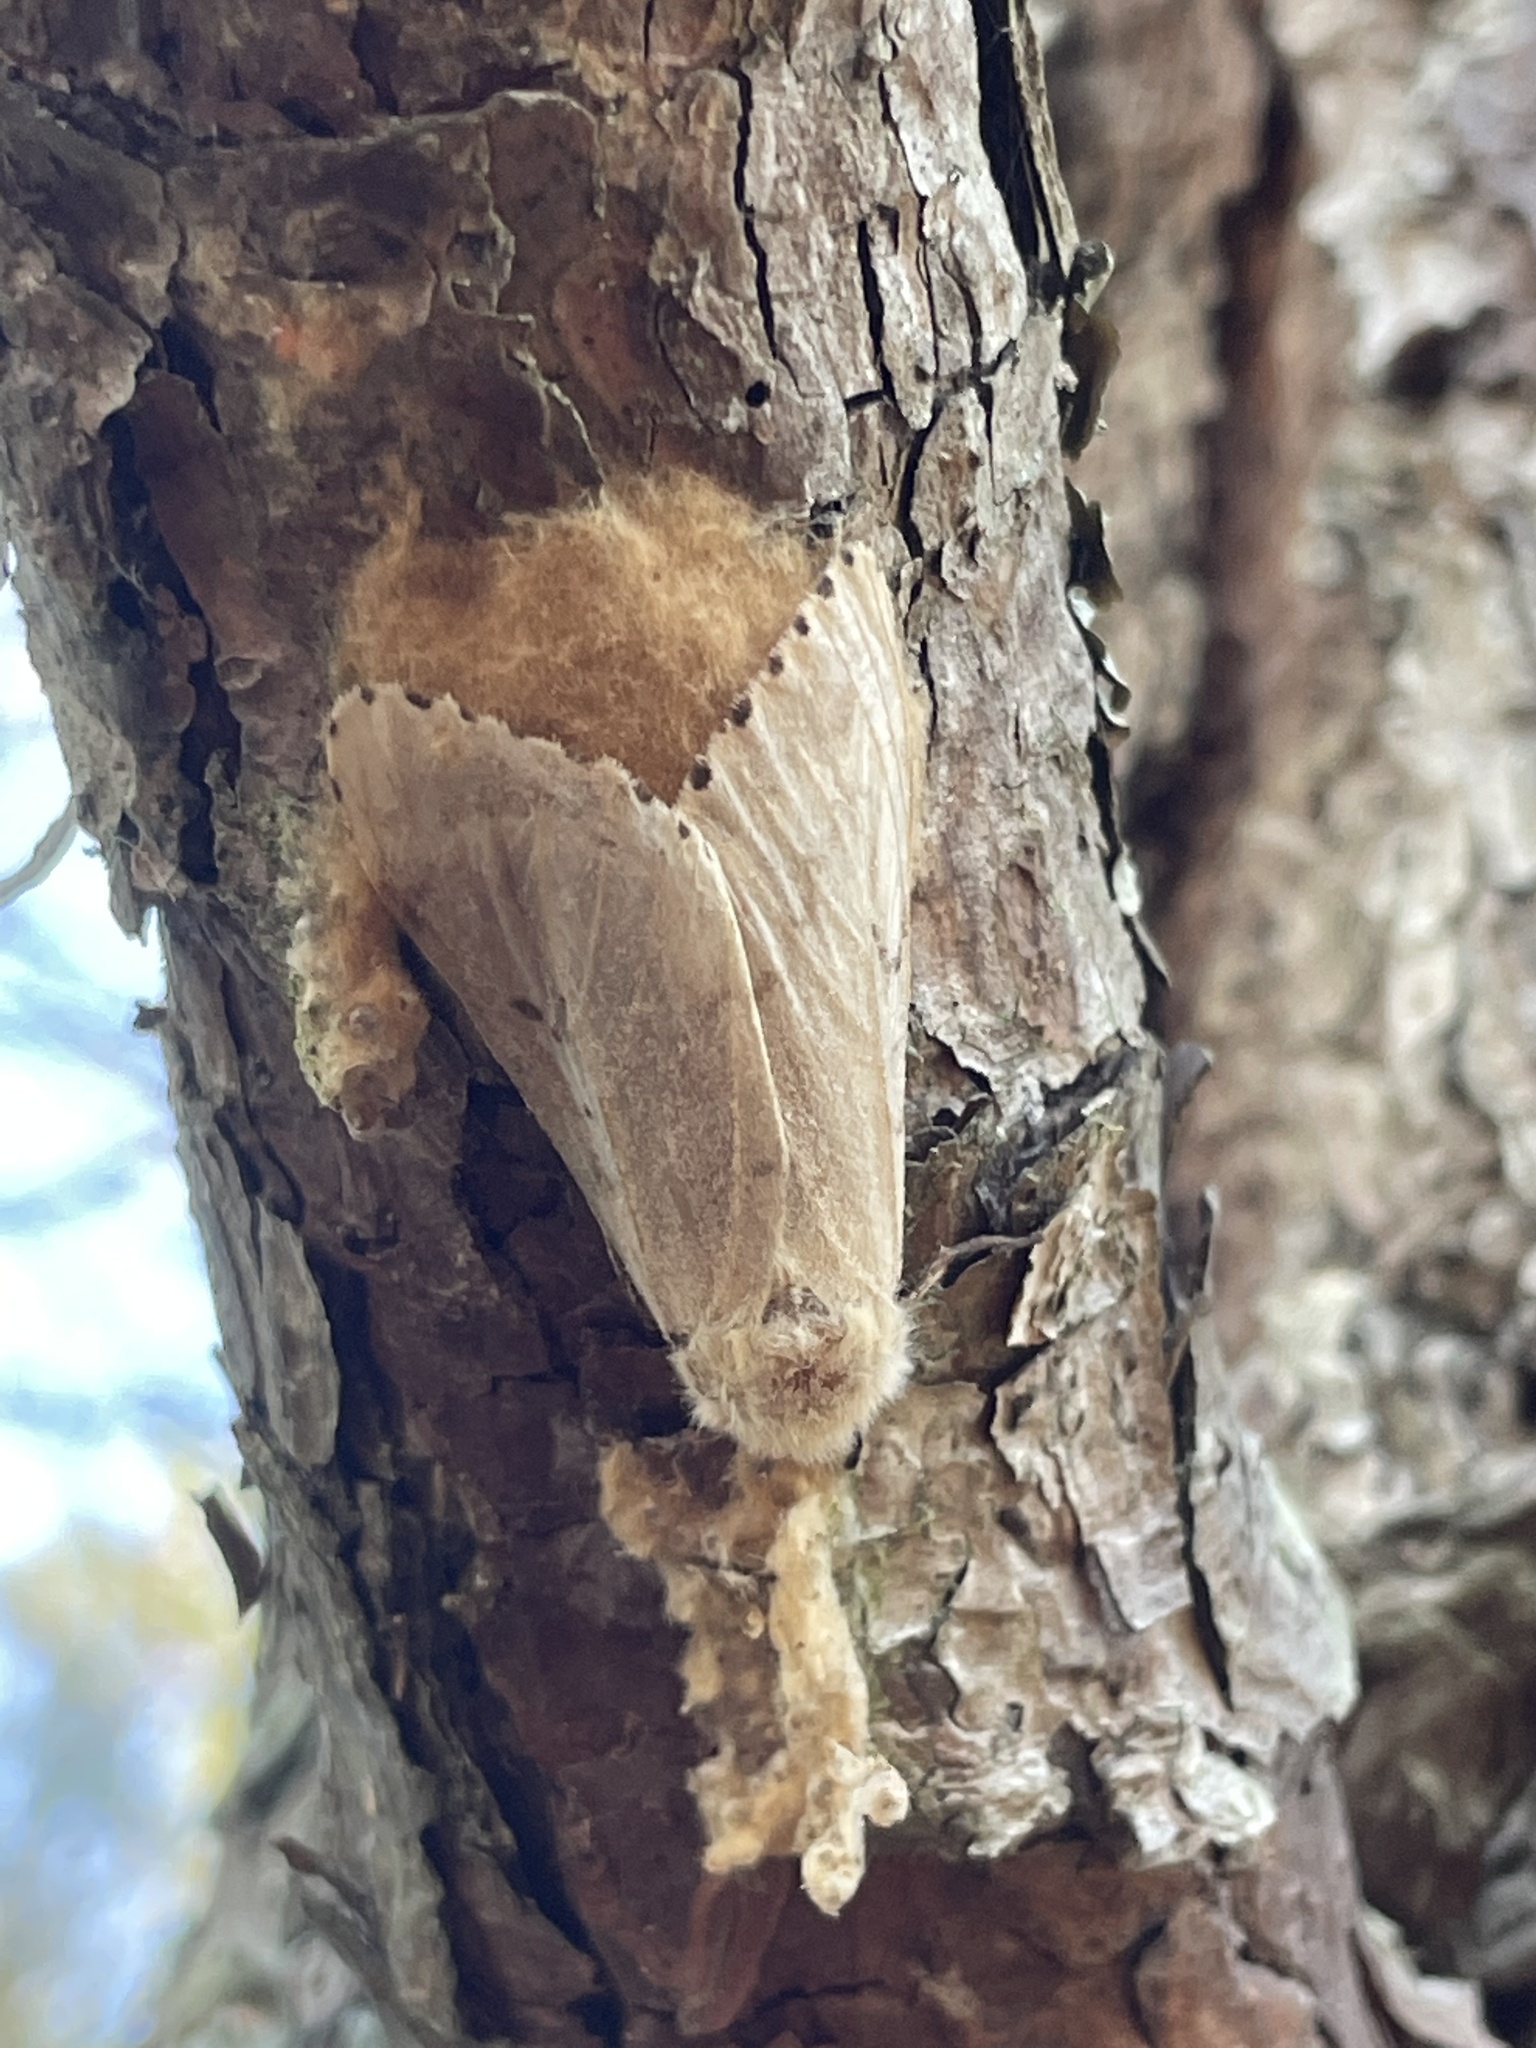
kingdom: Animalia
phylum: Arthropoda
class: Insecta
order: Lepidoptera
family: Erebidae
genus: Lymantria
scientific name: Lymantria dispar
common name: Gypsy moth
